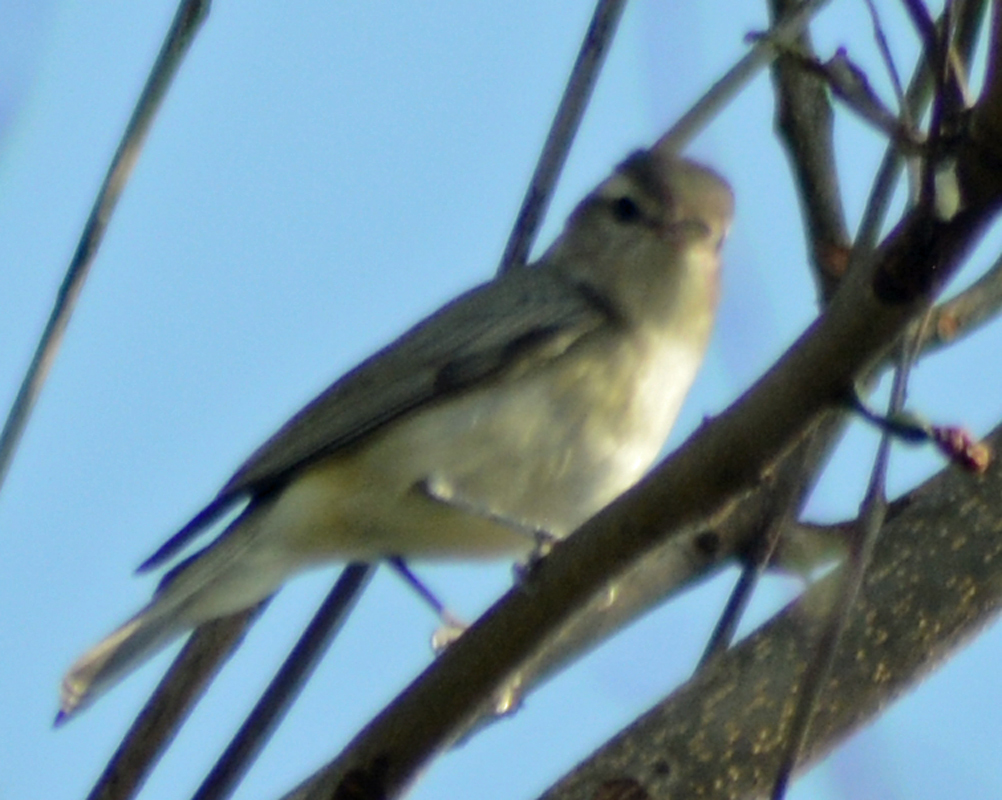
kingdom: Animalia
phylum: Chordata
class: Aves
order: Passeriformes
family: Vireonidae
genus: Vireo
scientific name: Vireo gilvus
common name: Warbling vireo
